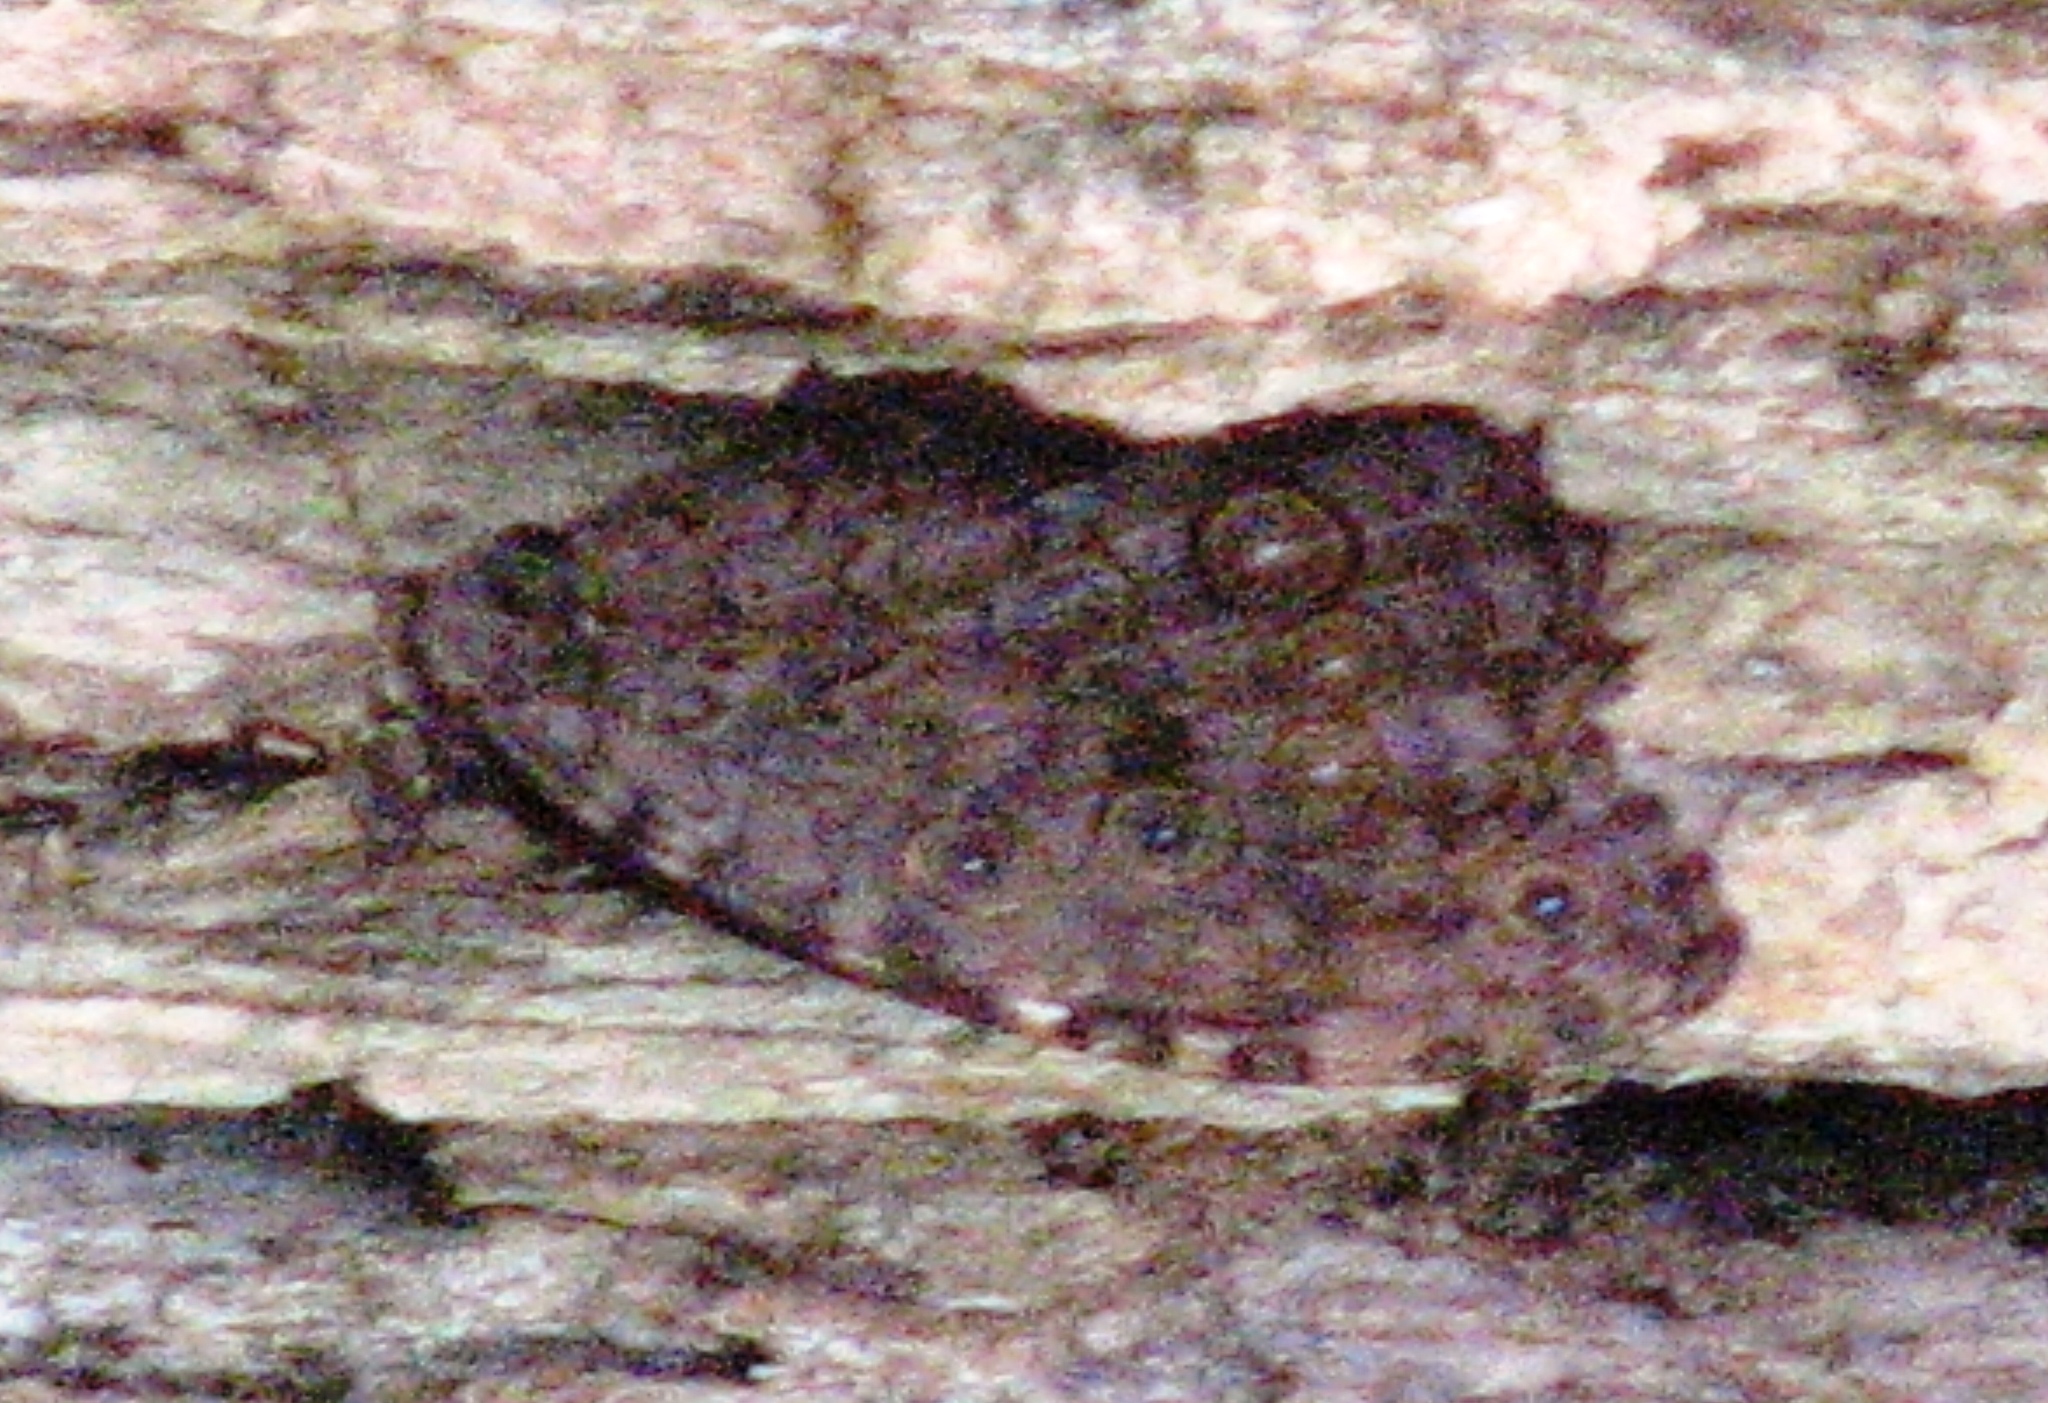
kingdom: Animalia
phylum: Arthropoda
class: Insecta
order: Lepidoptera
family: Nymphalidae
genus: Manataria
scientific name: Manataria maculata
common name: White-spotted satyr
